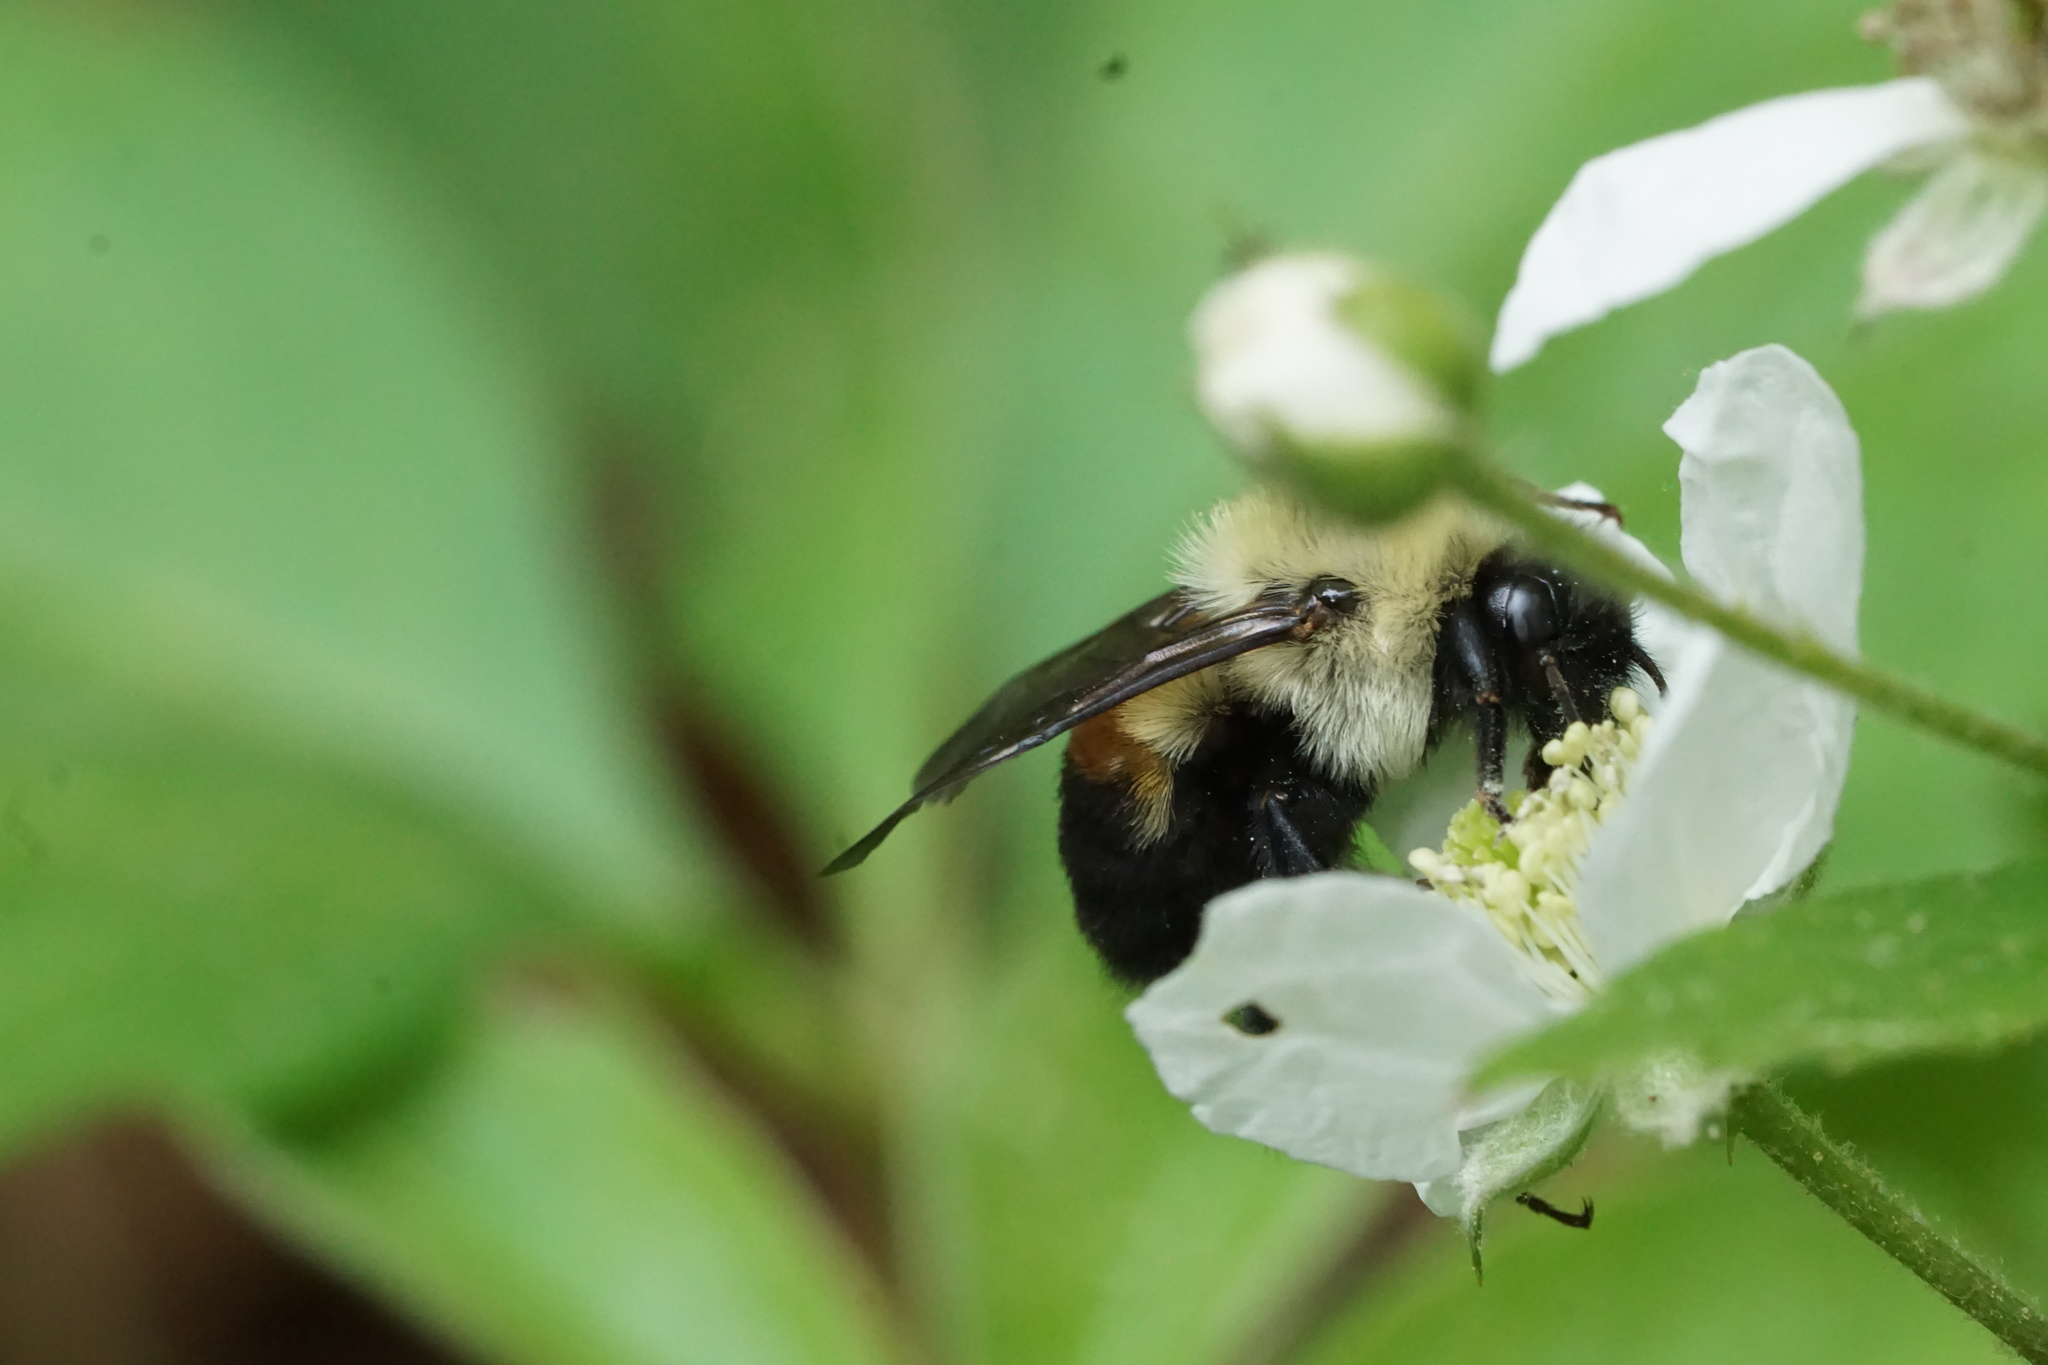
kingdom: Animalia
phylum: Arthropoda
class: Insecta
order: Hymenoptera
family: Apidae
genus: Bombus
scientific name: Bombus griseocollis
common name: Brown-belted bumble bee
